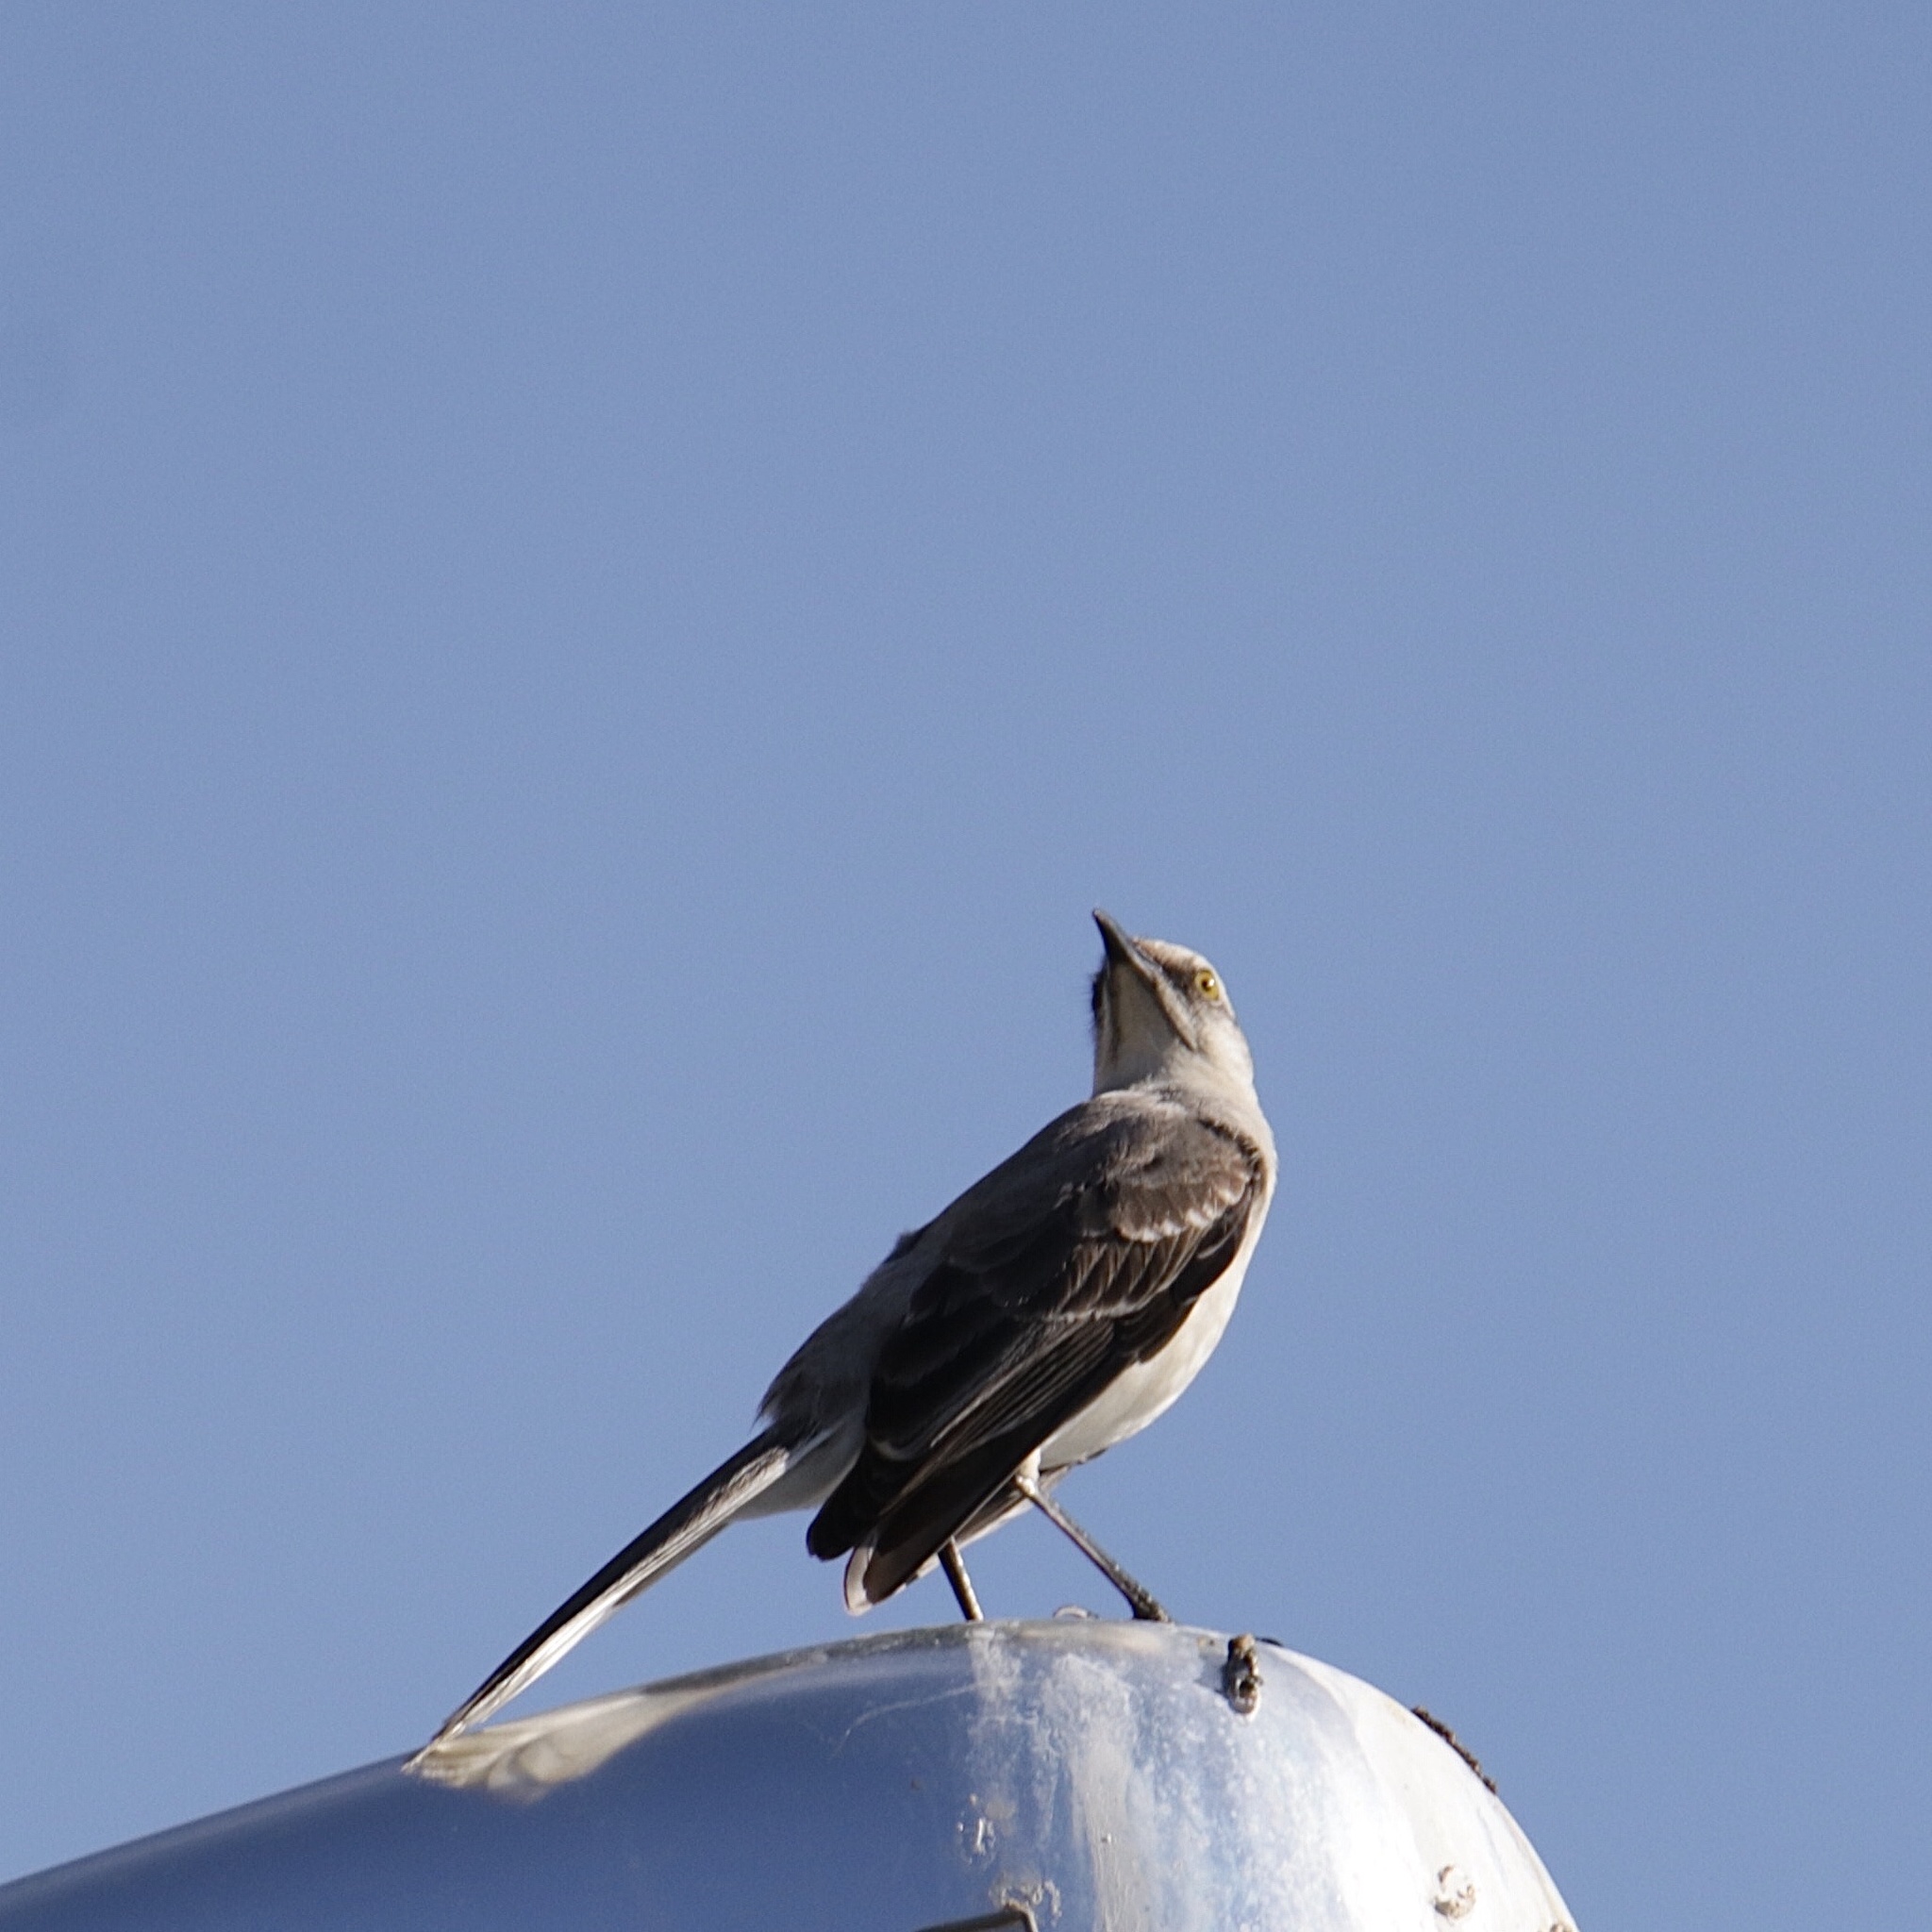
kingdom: Animalia
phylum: Chordata
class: Aves
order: Passeriformes
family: Mimidae
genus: Mimus
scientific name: Mimus gilvus
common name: Tropical mockingbird
